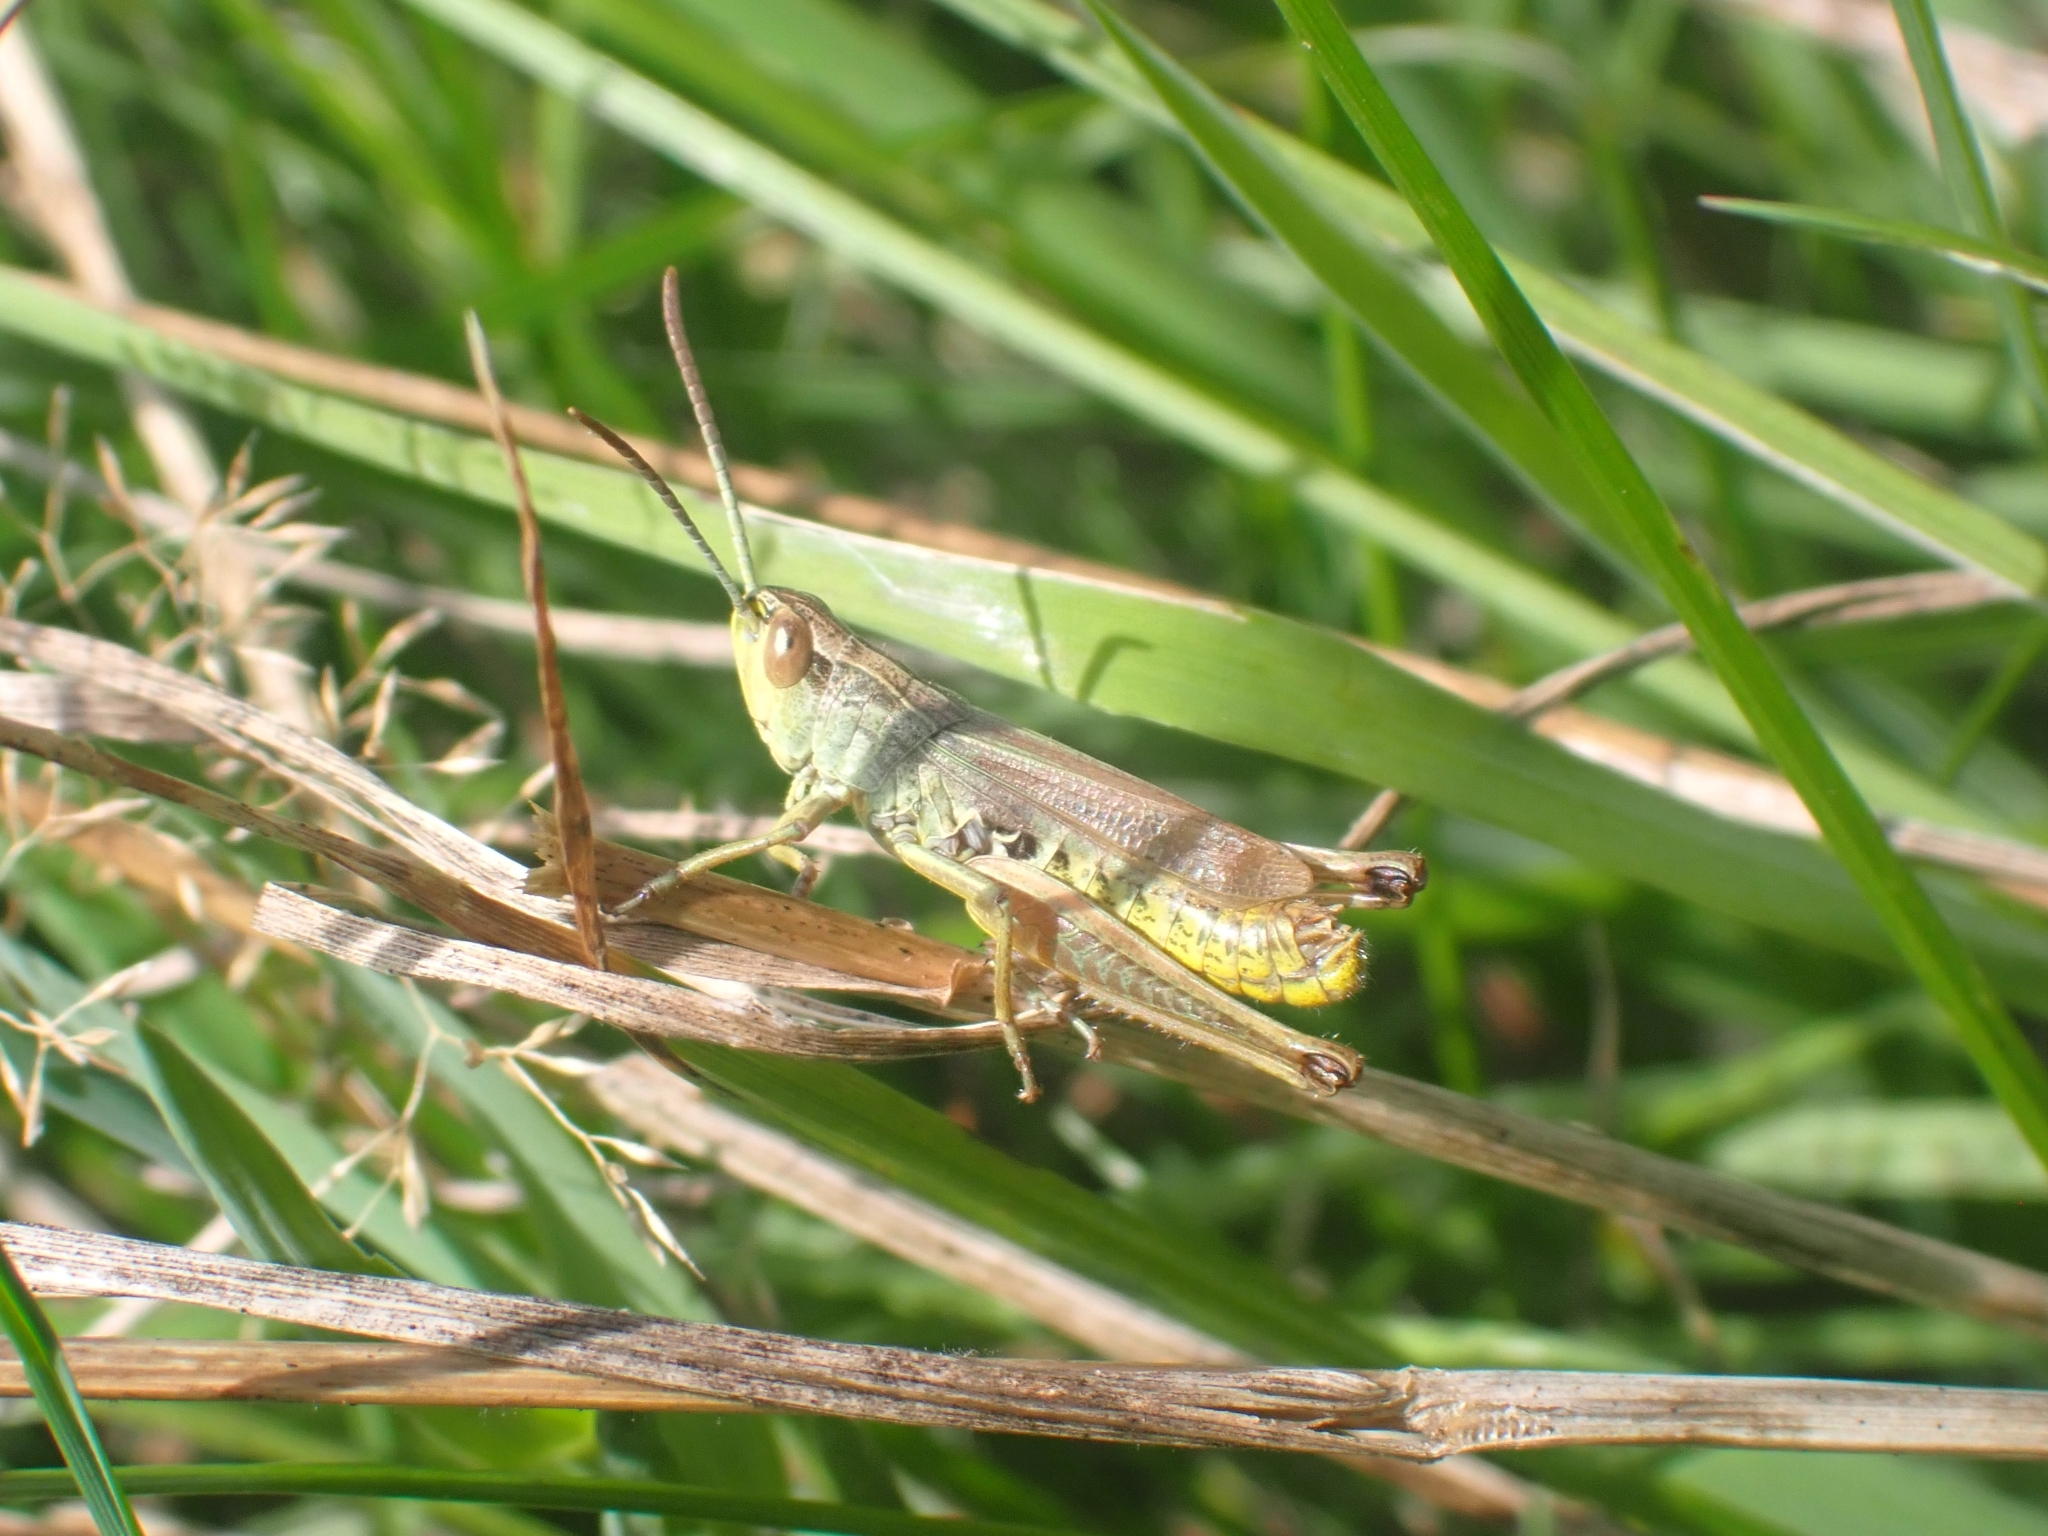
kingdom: Animalia
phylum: Arthropoda
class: Insecta
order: Orthoptera
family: Acrididae
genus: Pseudochorthippus
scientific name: Pseudochorthippus parallelus
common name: Meadow grasshopper
